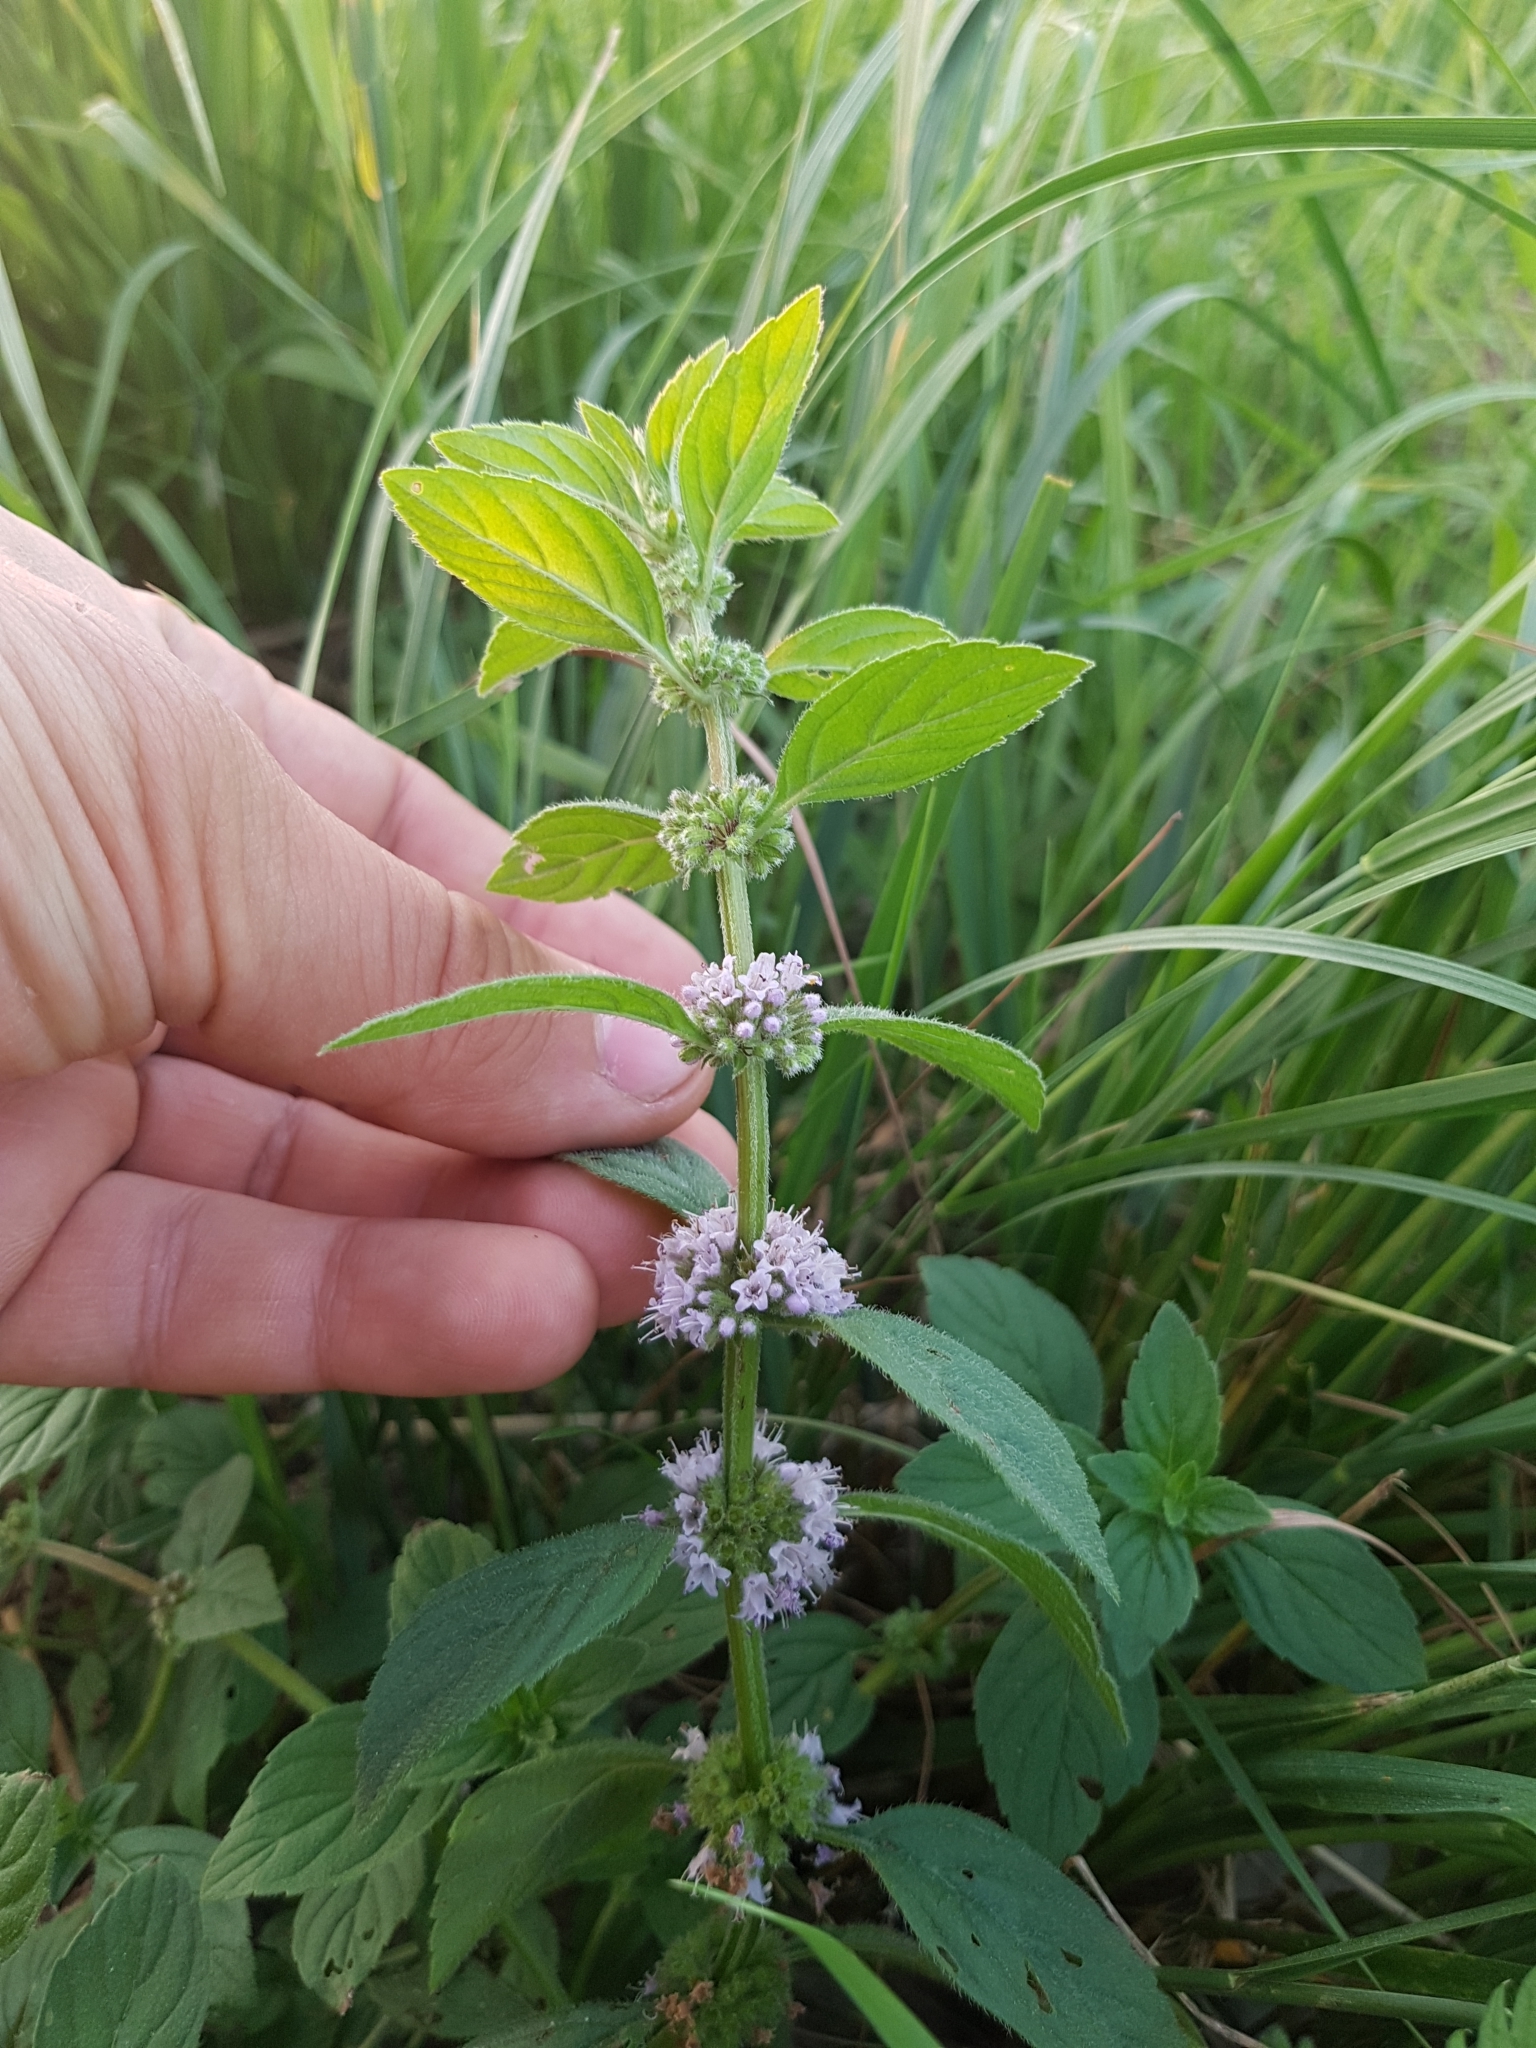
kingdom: Plantae
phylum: Tracheophyta
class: Magnoliopsida
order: Lamiales
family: Lamiaceae
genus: Mentha
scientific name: Mentha verticillata
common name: Mint
